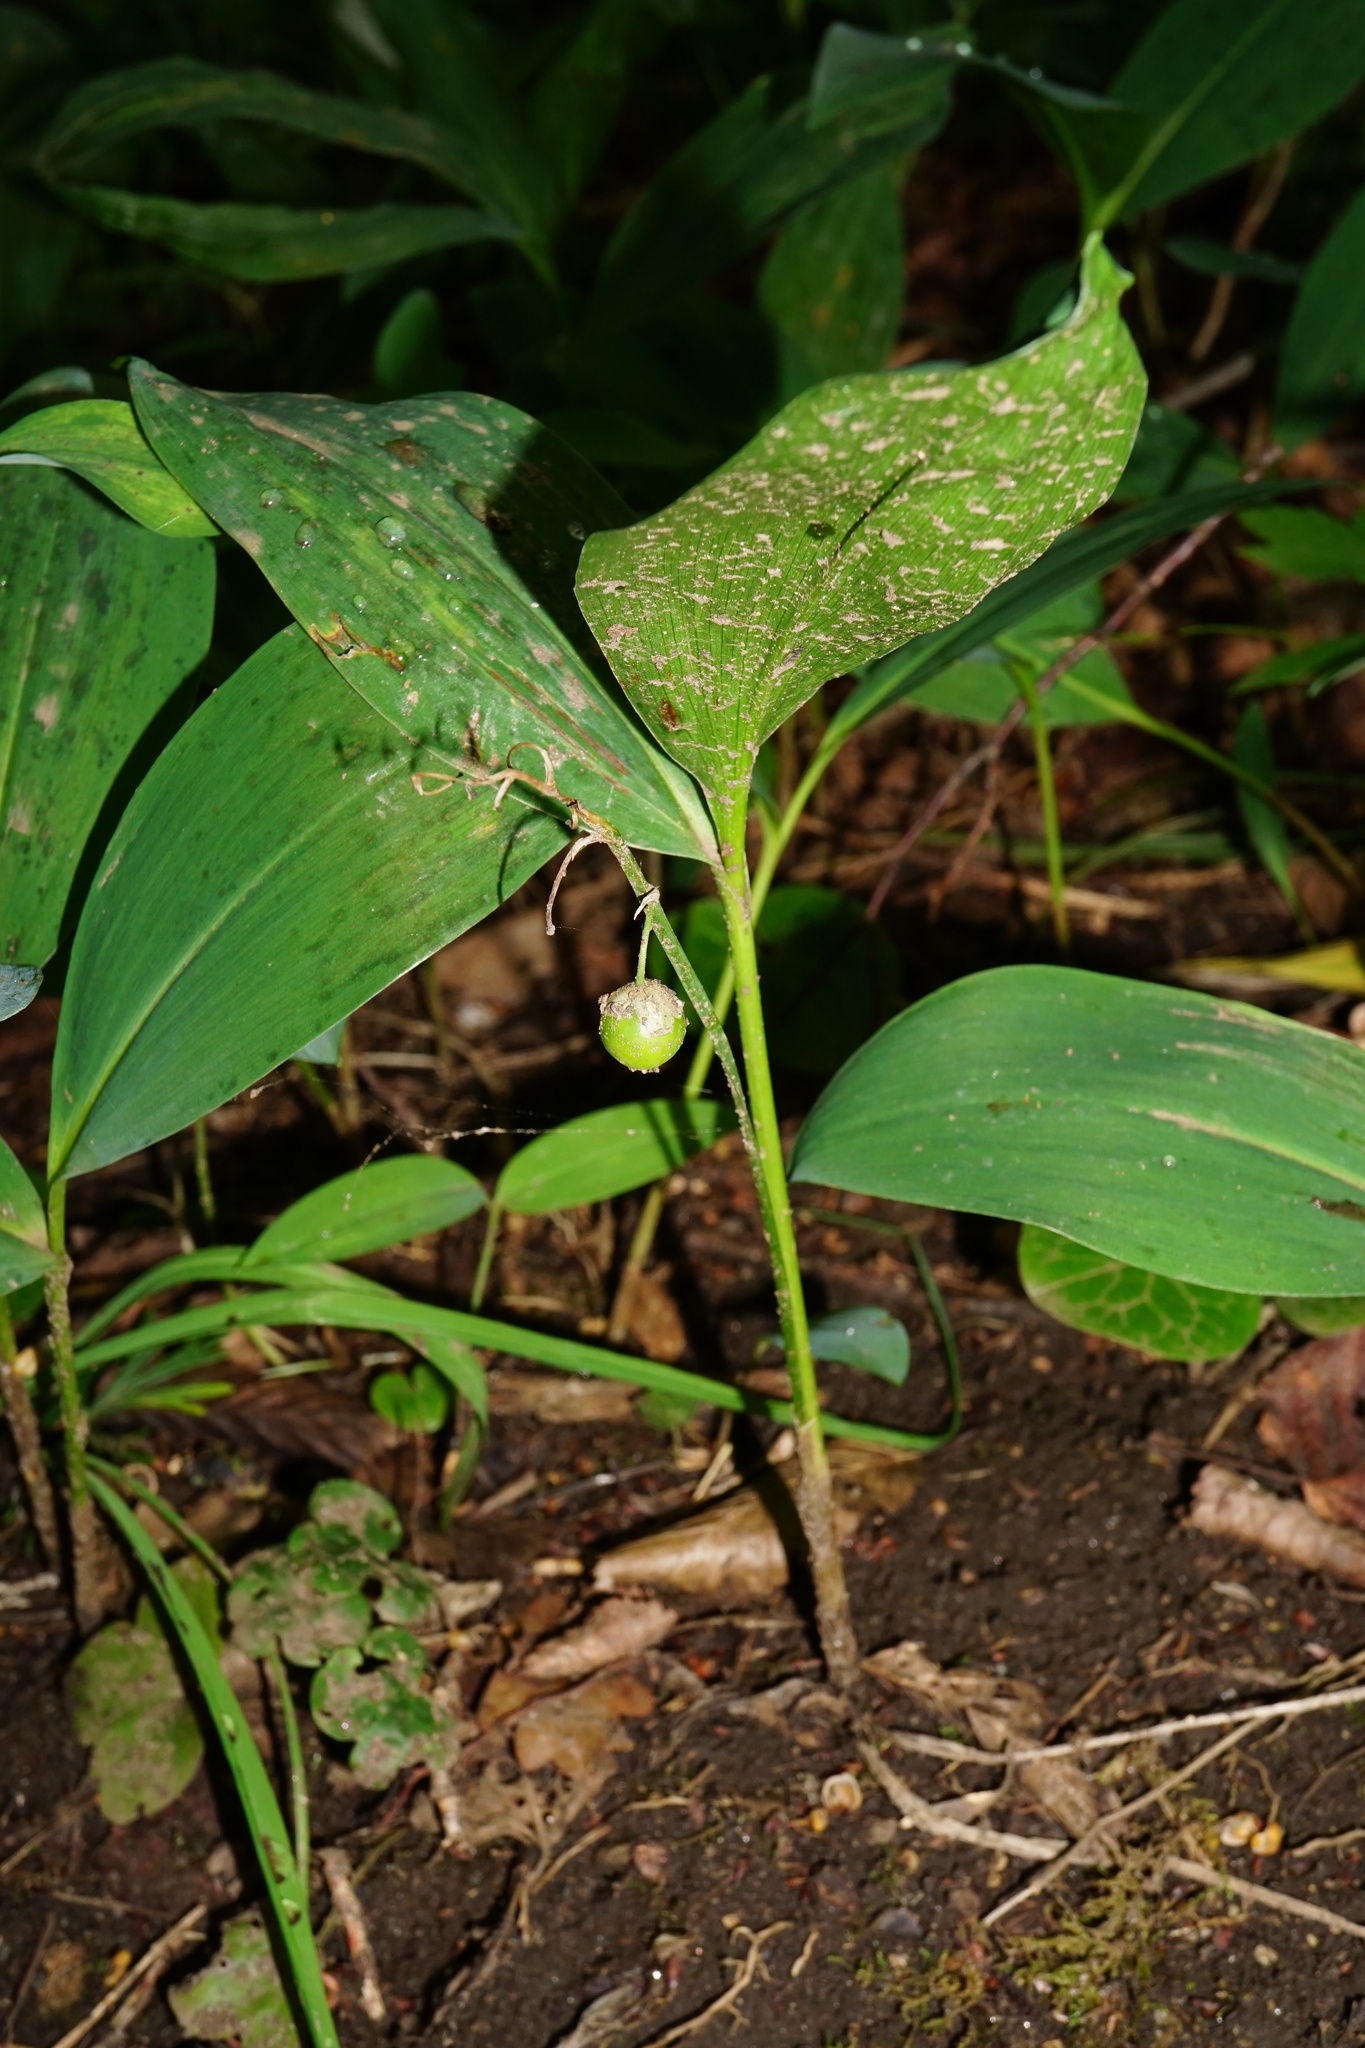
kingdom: Plantae
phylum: Tracheophyta
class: Liliopsida
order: Asparagales
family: Asparagaceae
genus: Convallaria
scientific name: Convallaria majalis
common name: Lily-of-the-valley
